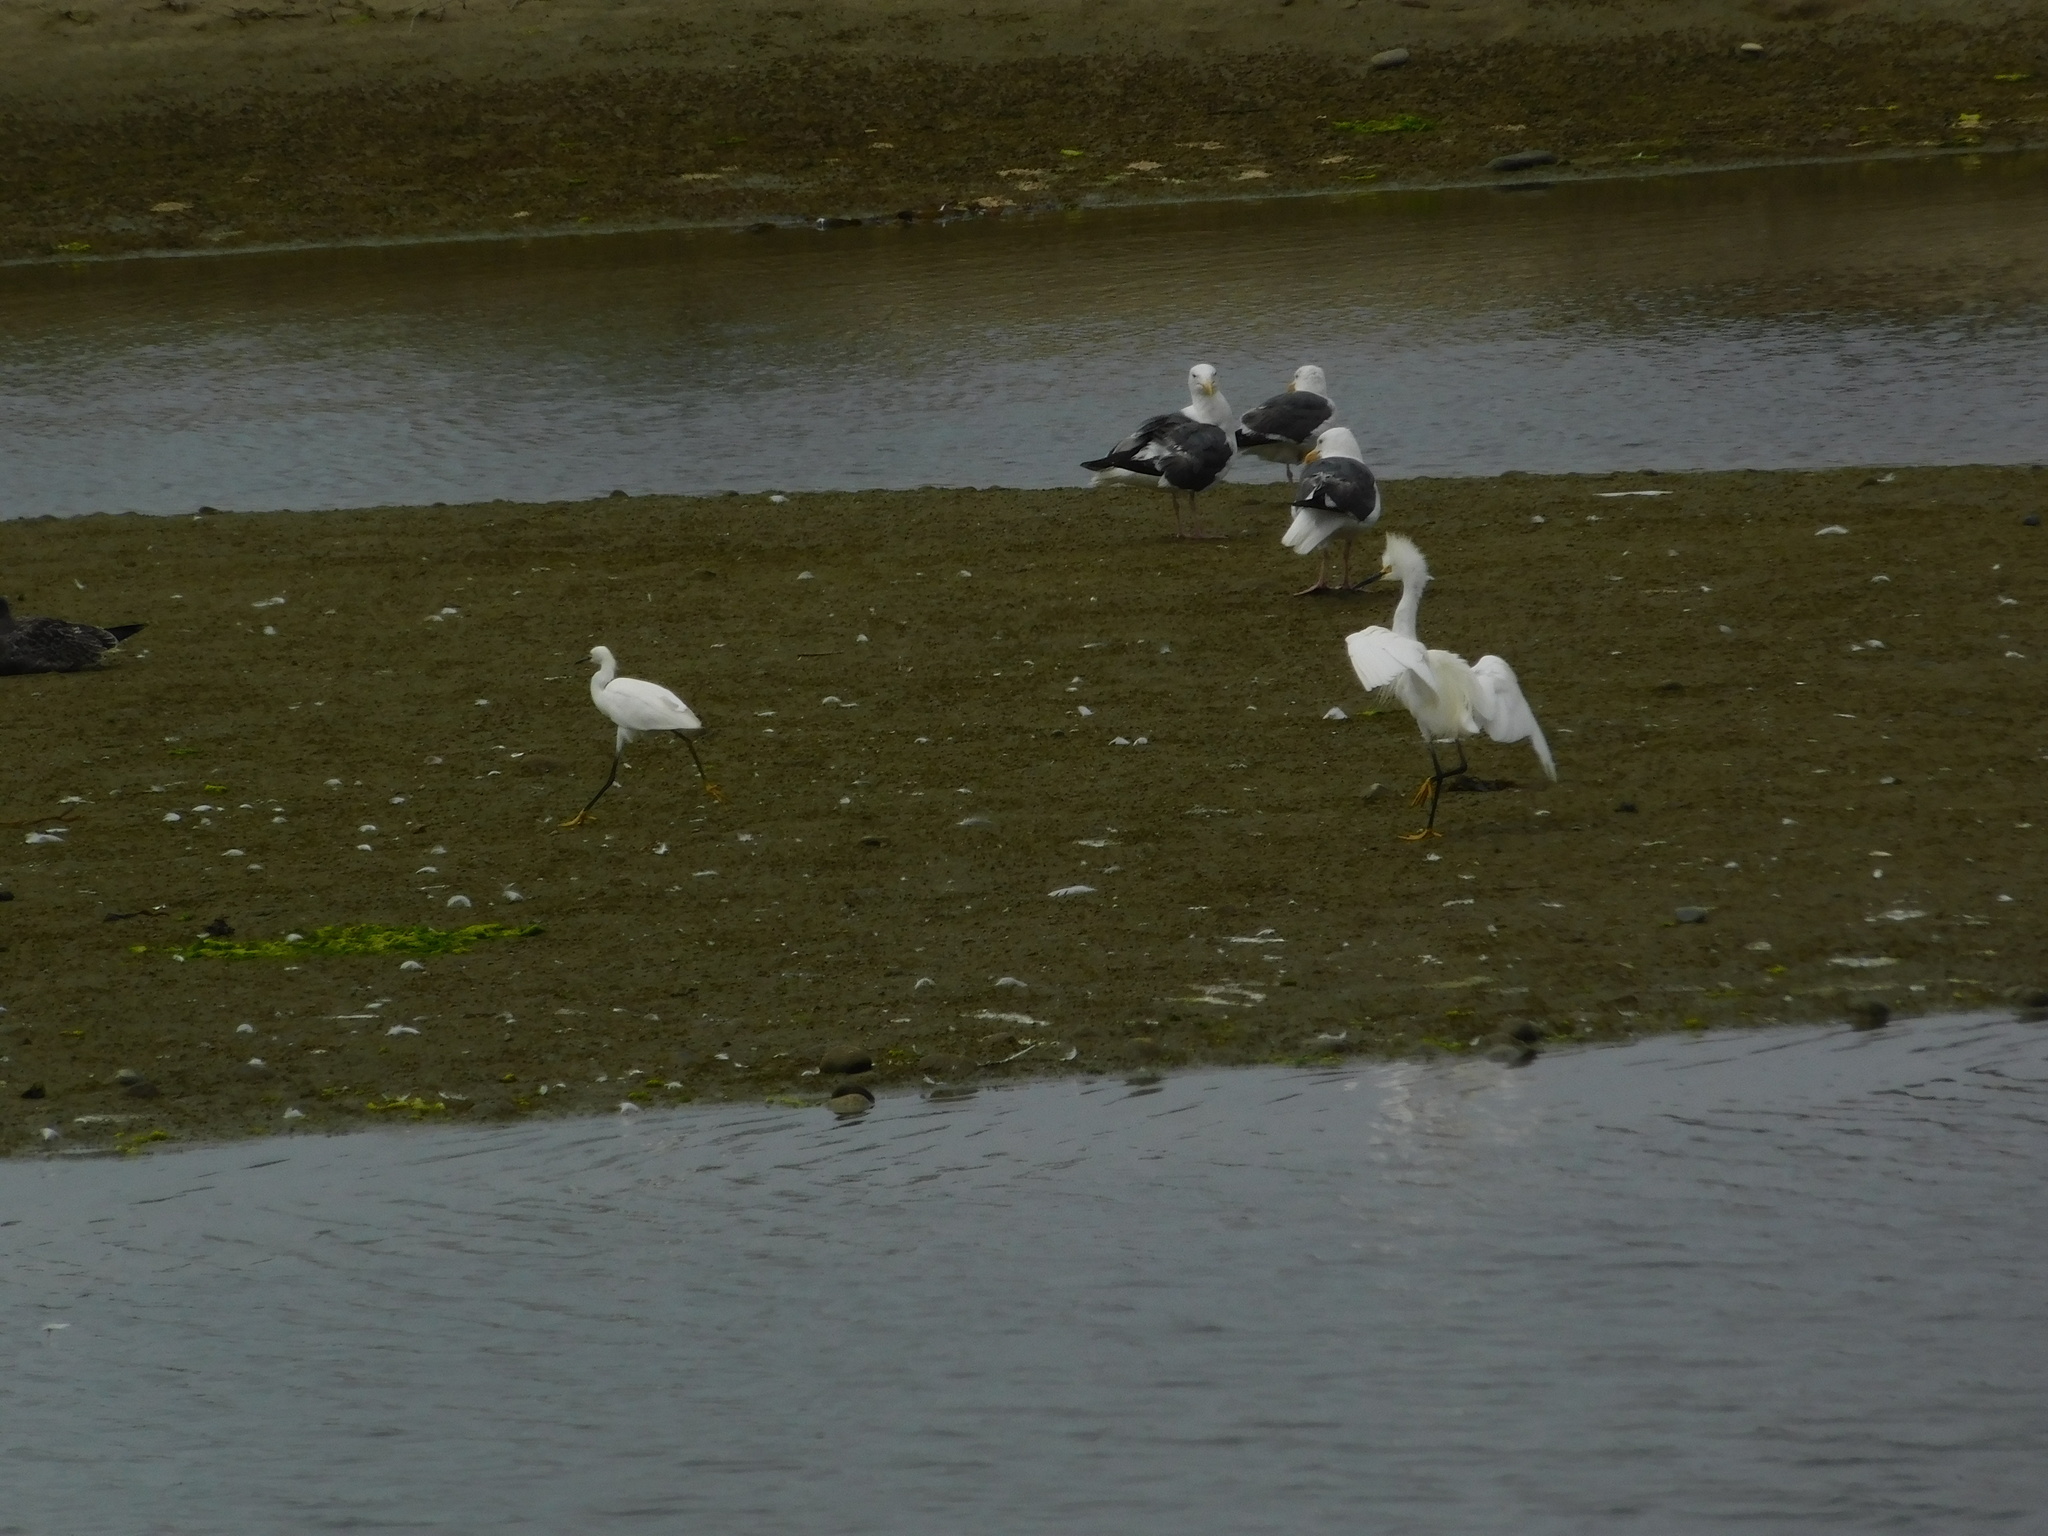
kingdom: Animalia
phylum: Chordata
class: Aves
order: Pelecaniformes
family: Ardeidae
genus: Egretta
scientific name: Egretta thula
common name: Snowy egret
